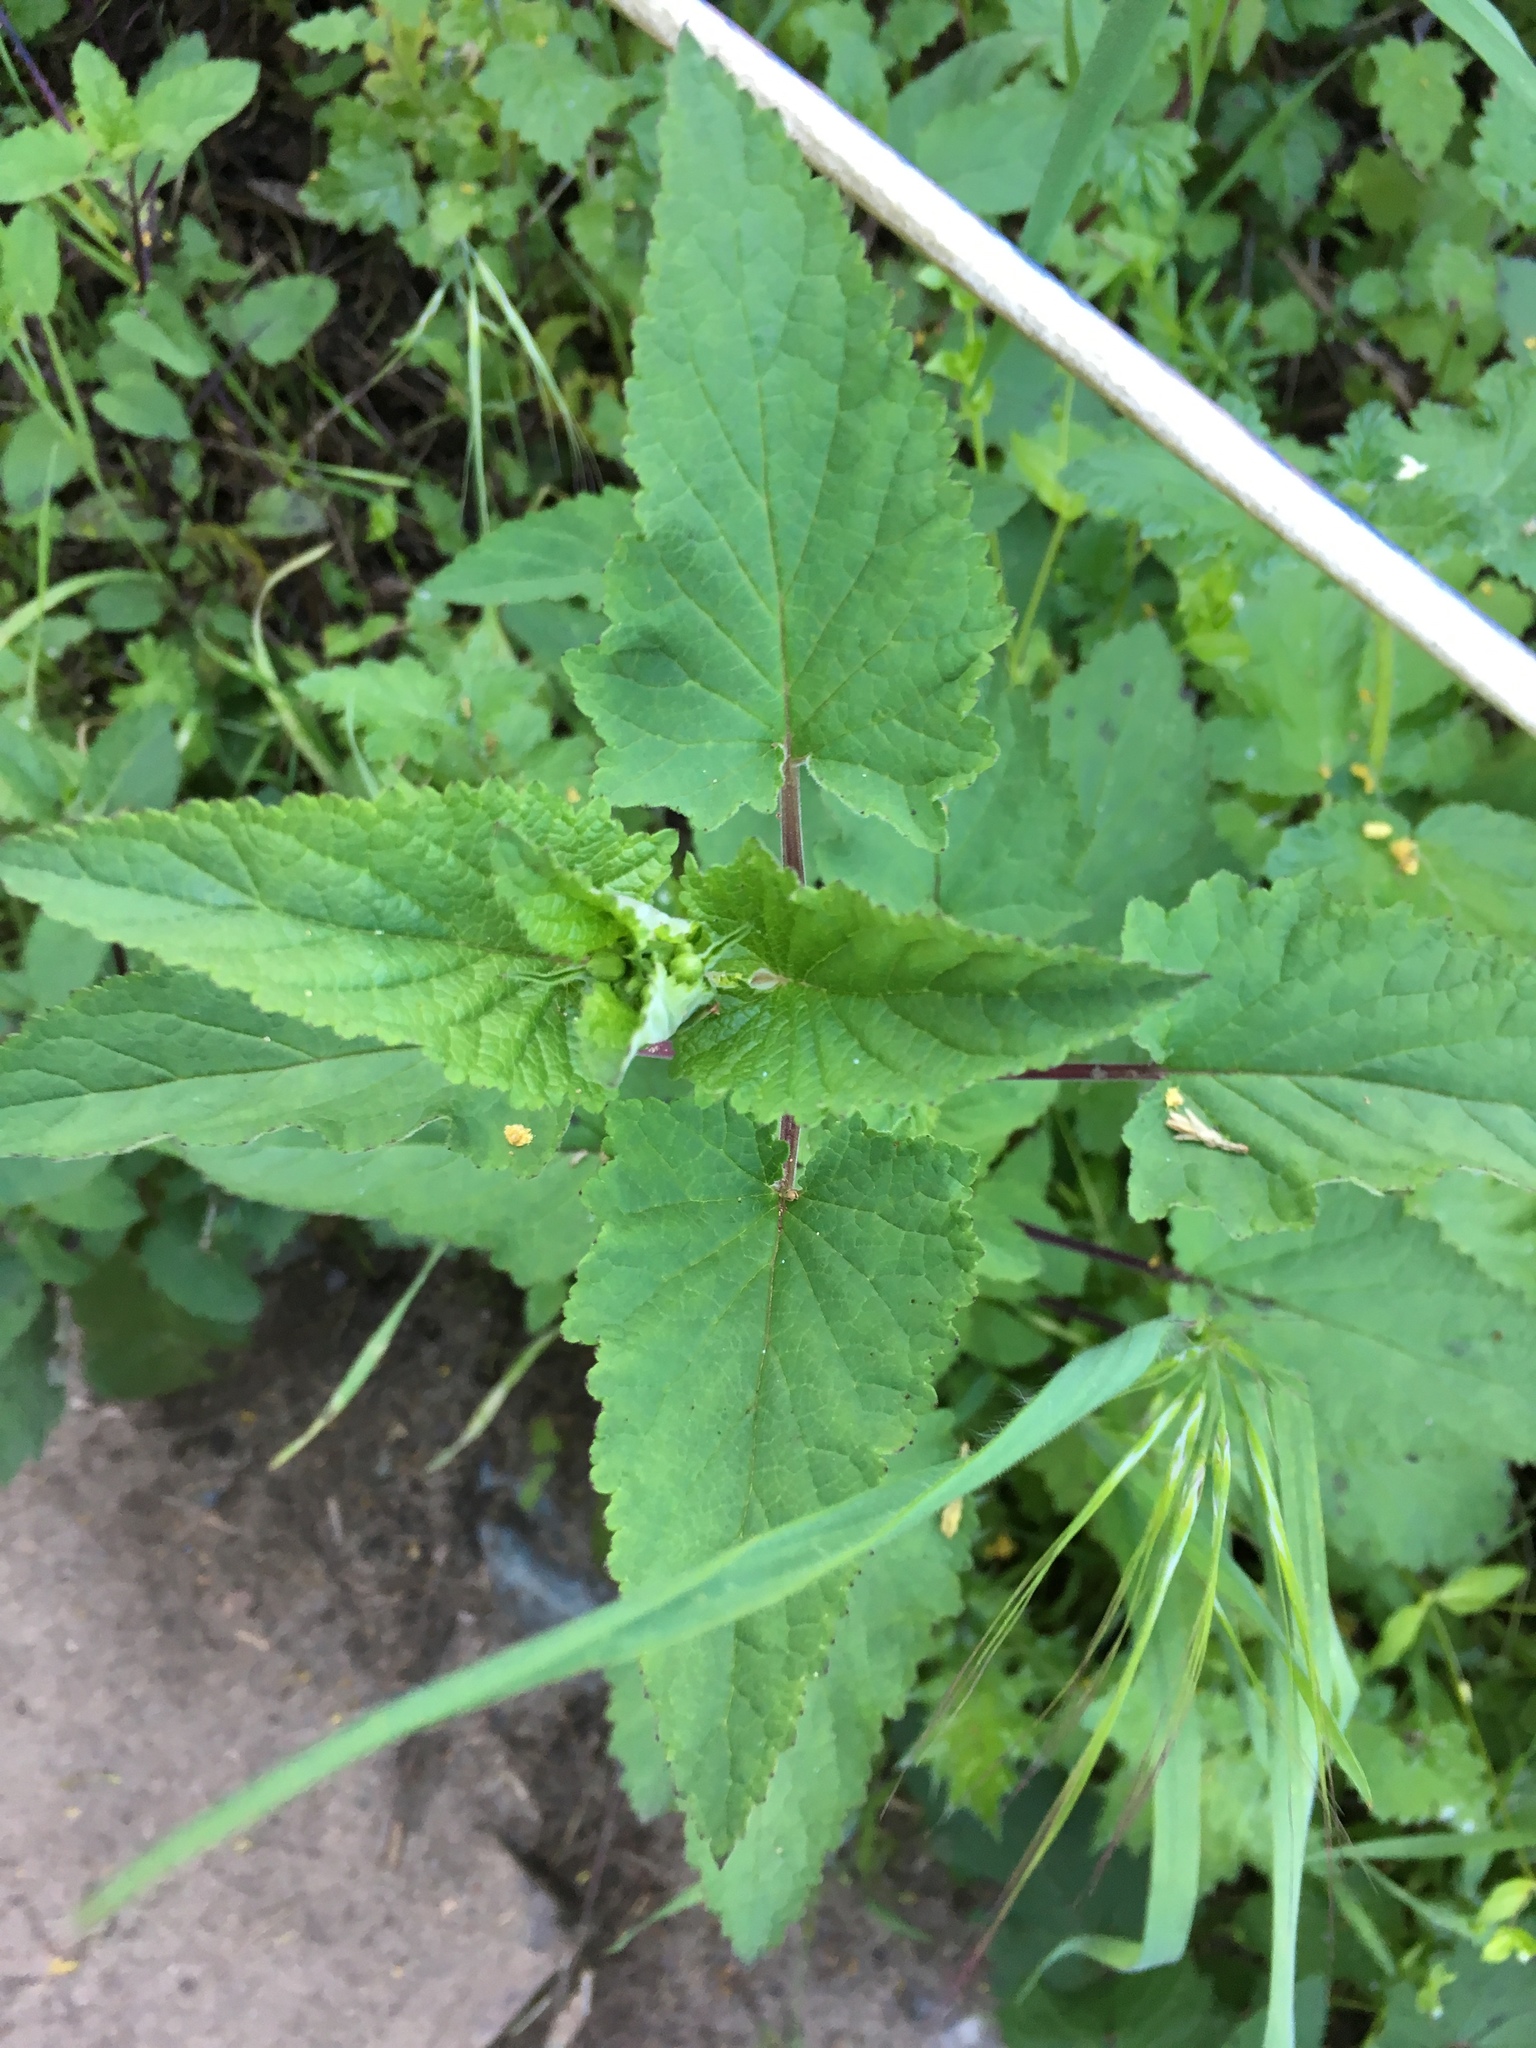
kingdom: Plantae
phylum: Tracheophyta
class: Magnoliopsida
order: Lamiales
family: Scrophulariaceae
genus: Scrophularia
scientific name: Scrophularia californica
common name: California figwort
